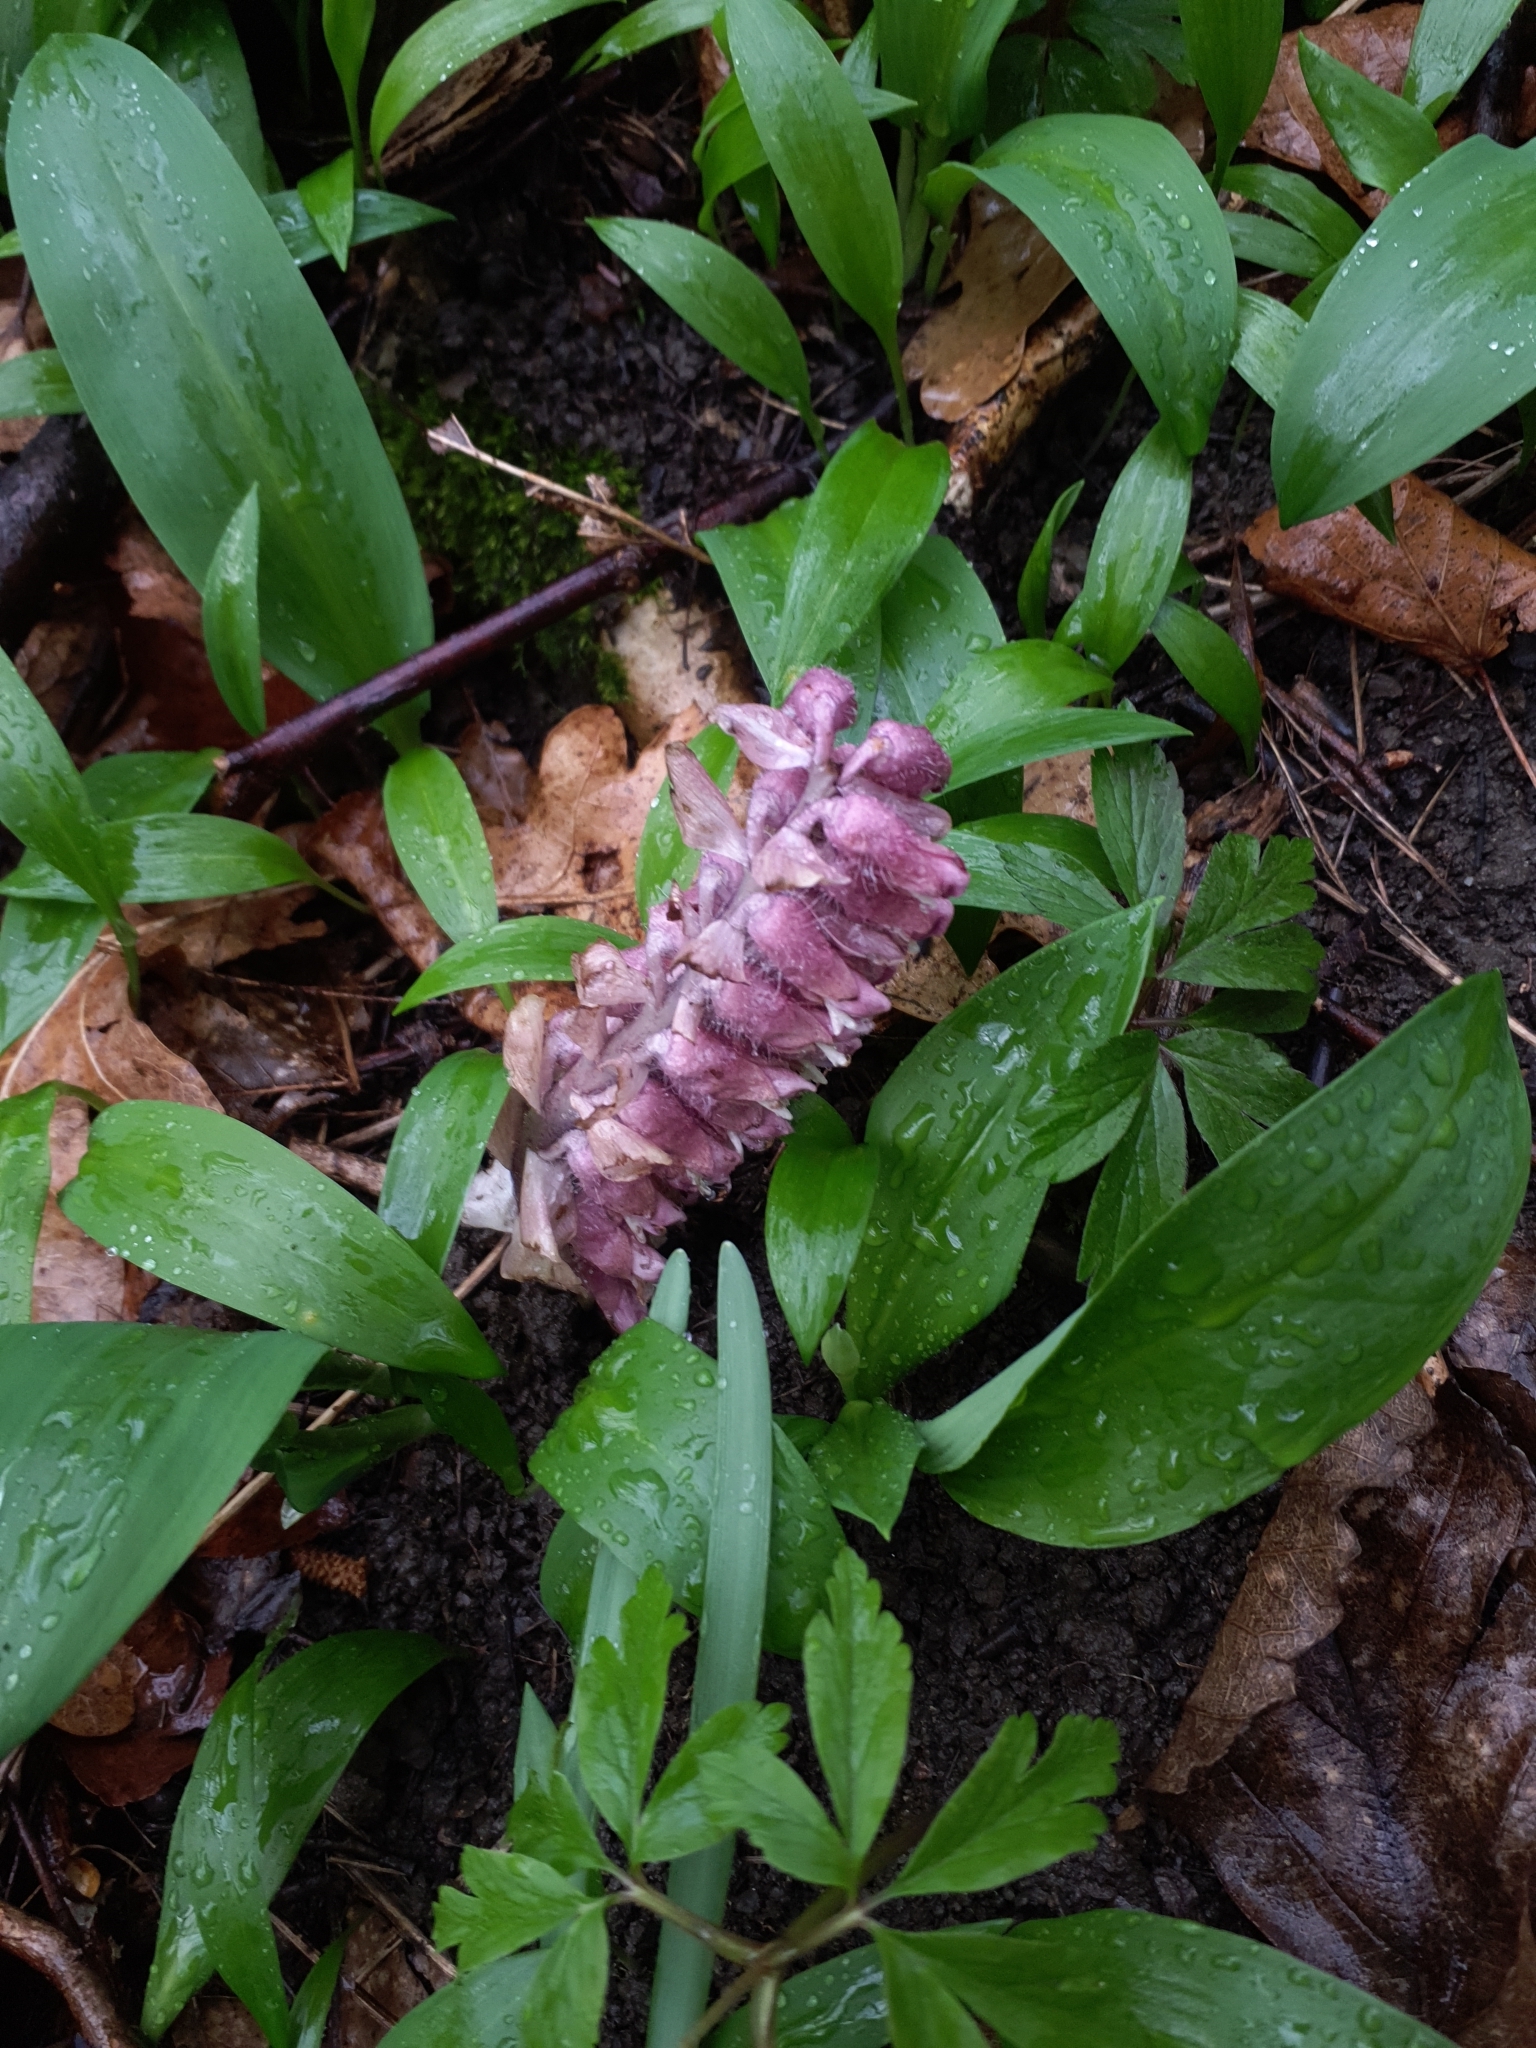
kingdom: Plantae
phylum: Tracheophyta
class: Magnoliopsida
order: Lamiales
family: Orobanchaceae
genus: Lathraea
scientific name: Lathraea squamaria
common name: Toothwort
